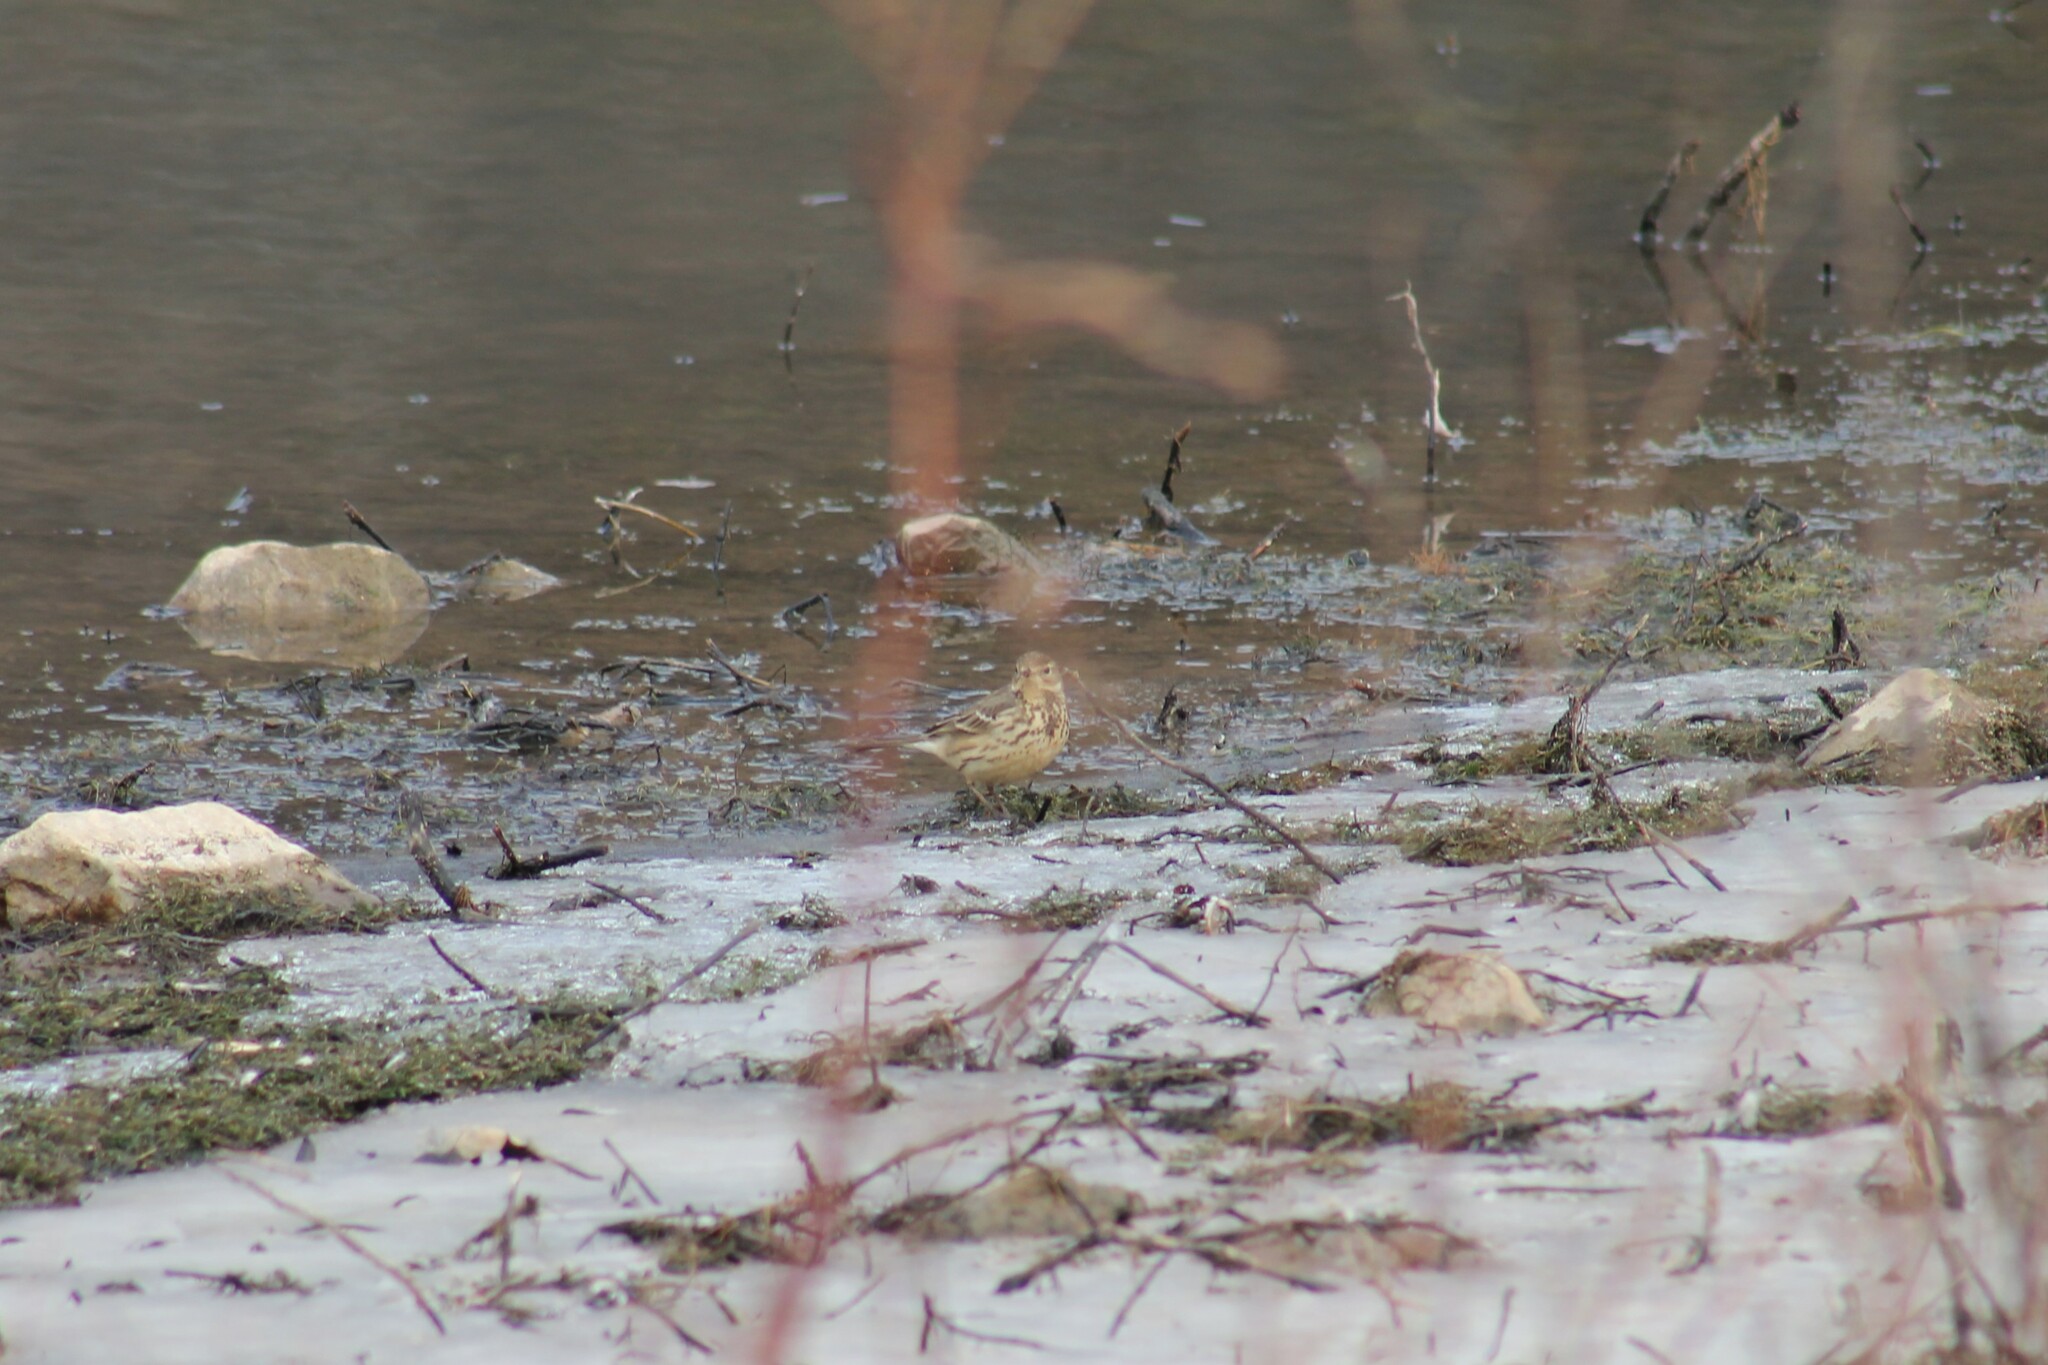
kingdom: Animalia
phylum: Chordata
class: Aves
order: Passeriformes
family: Motacillidae
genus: Anthus
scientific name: Anthus rubescens
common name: Buff-bellied pipit
